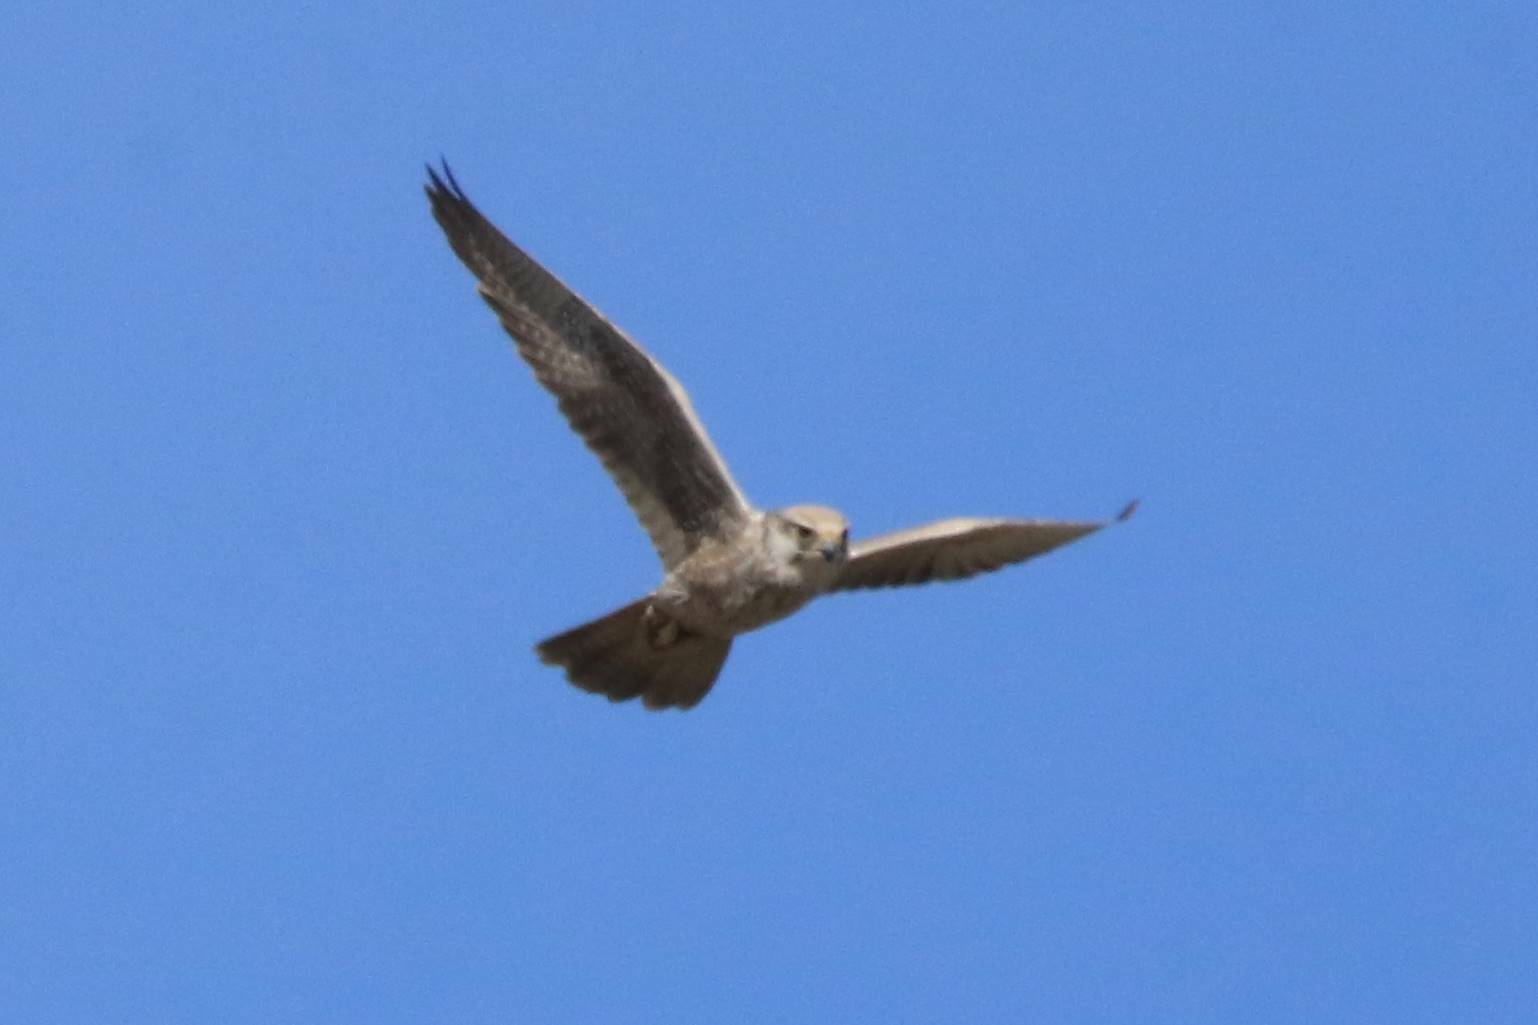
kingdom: Animalia
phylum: Chordata
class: Aves
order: Falconiformes
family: Falconidae
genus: Falco
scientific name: Falco biarmicus
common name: Lanner falcon
